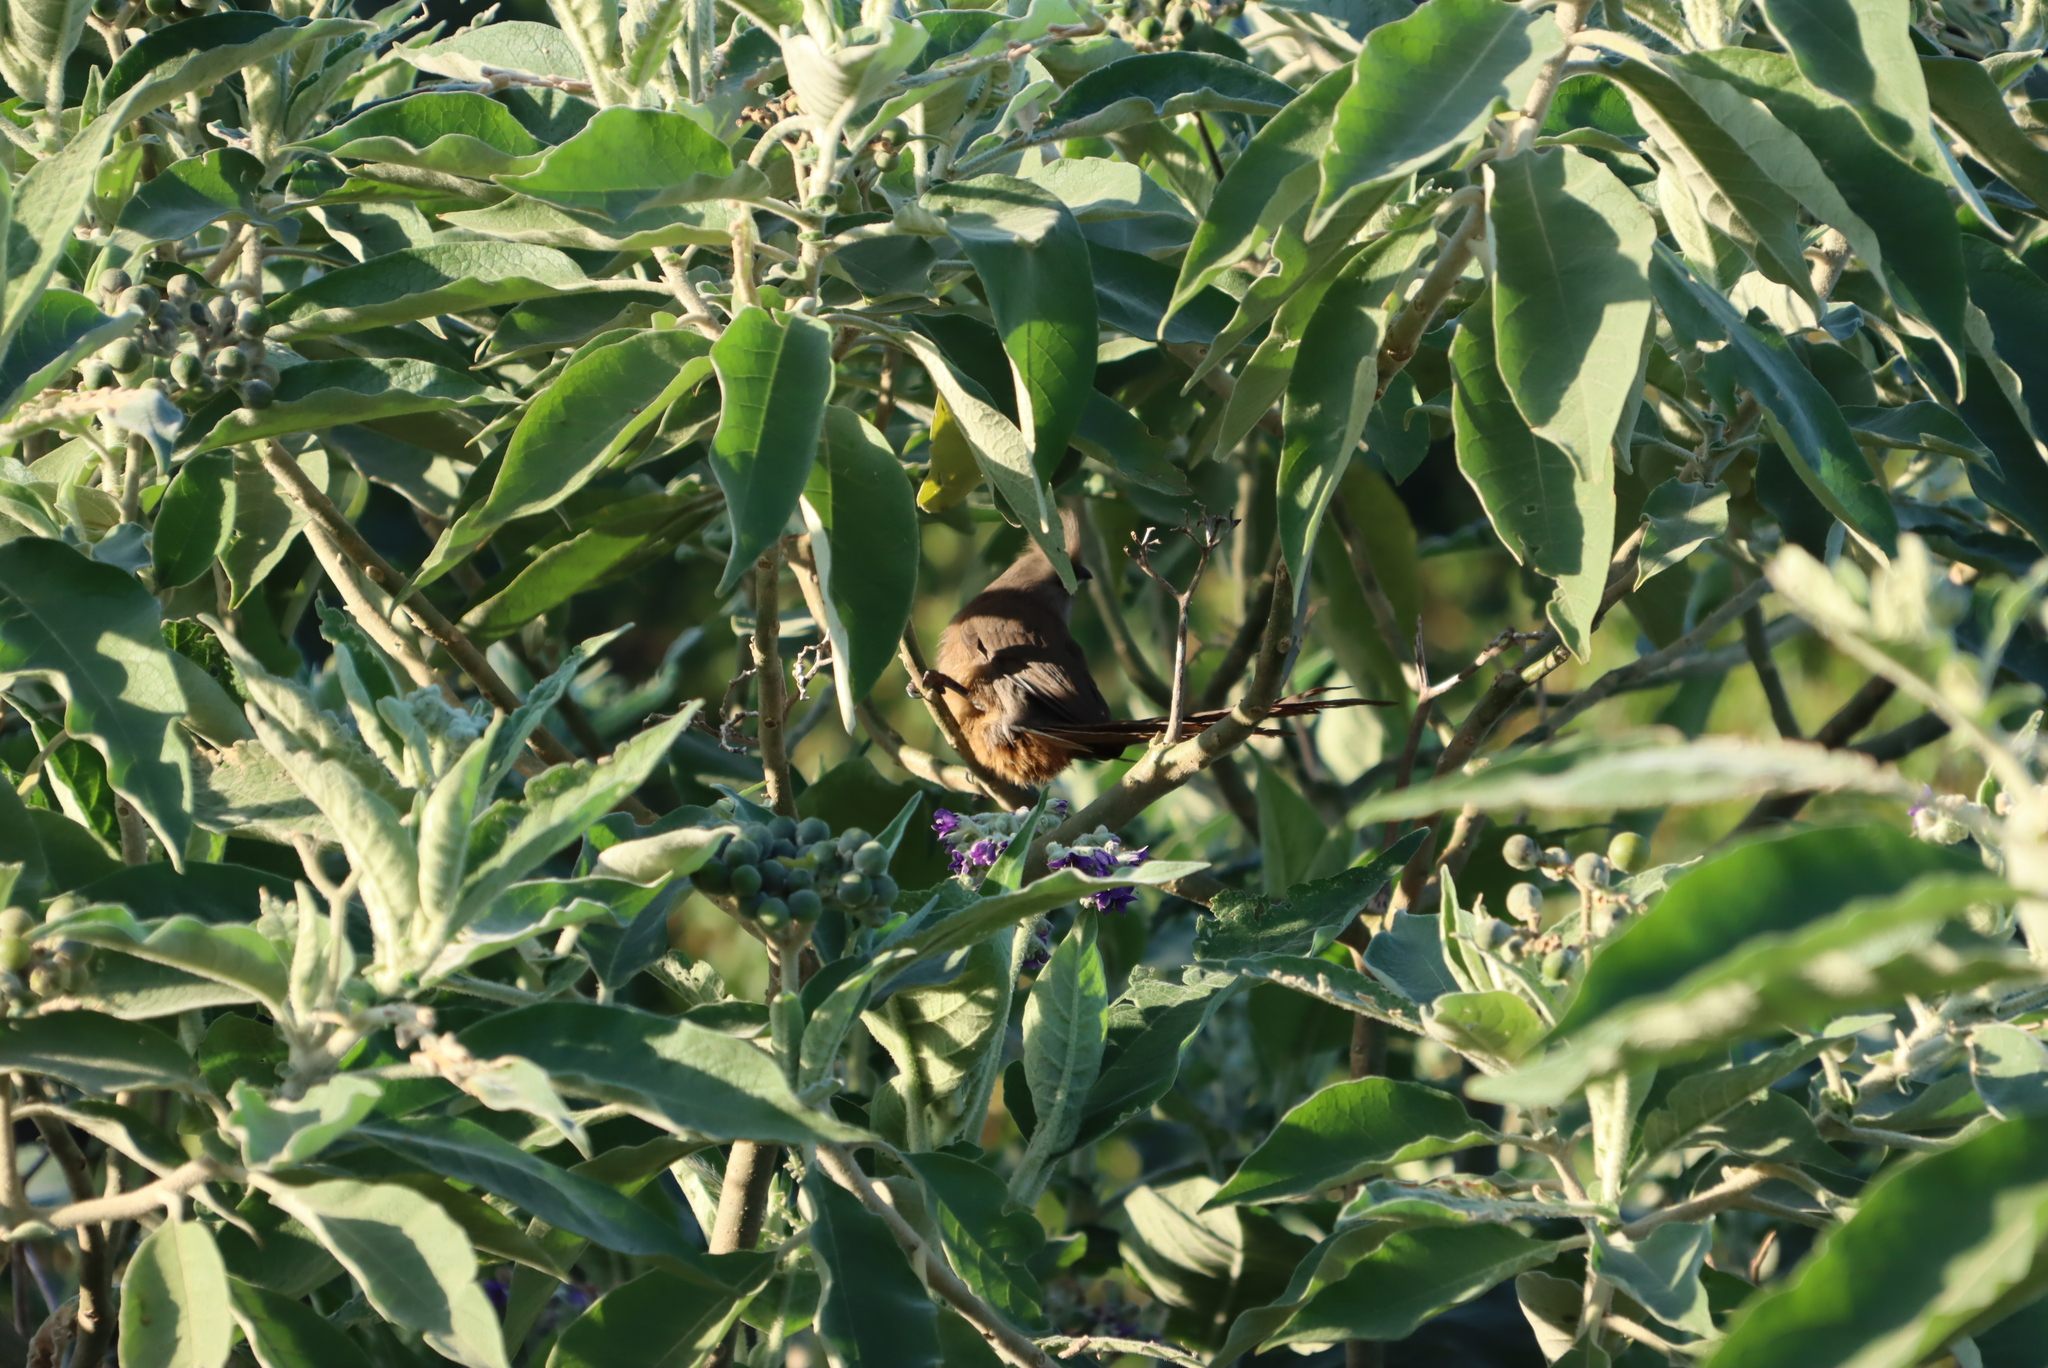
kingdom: Plantae
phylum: Tracheophyta
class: Magnoliopsida
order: Solanales
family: Solanaceae
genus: Solanum
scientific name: Solanum mauritianum
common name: Earleaf nightshade
